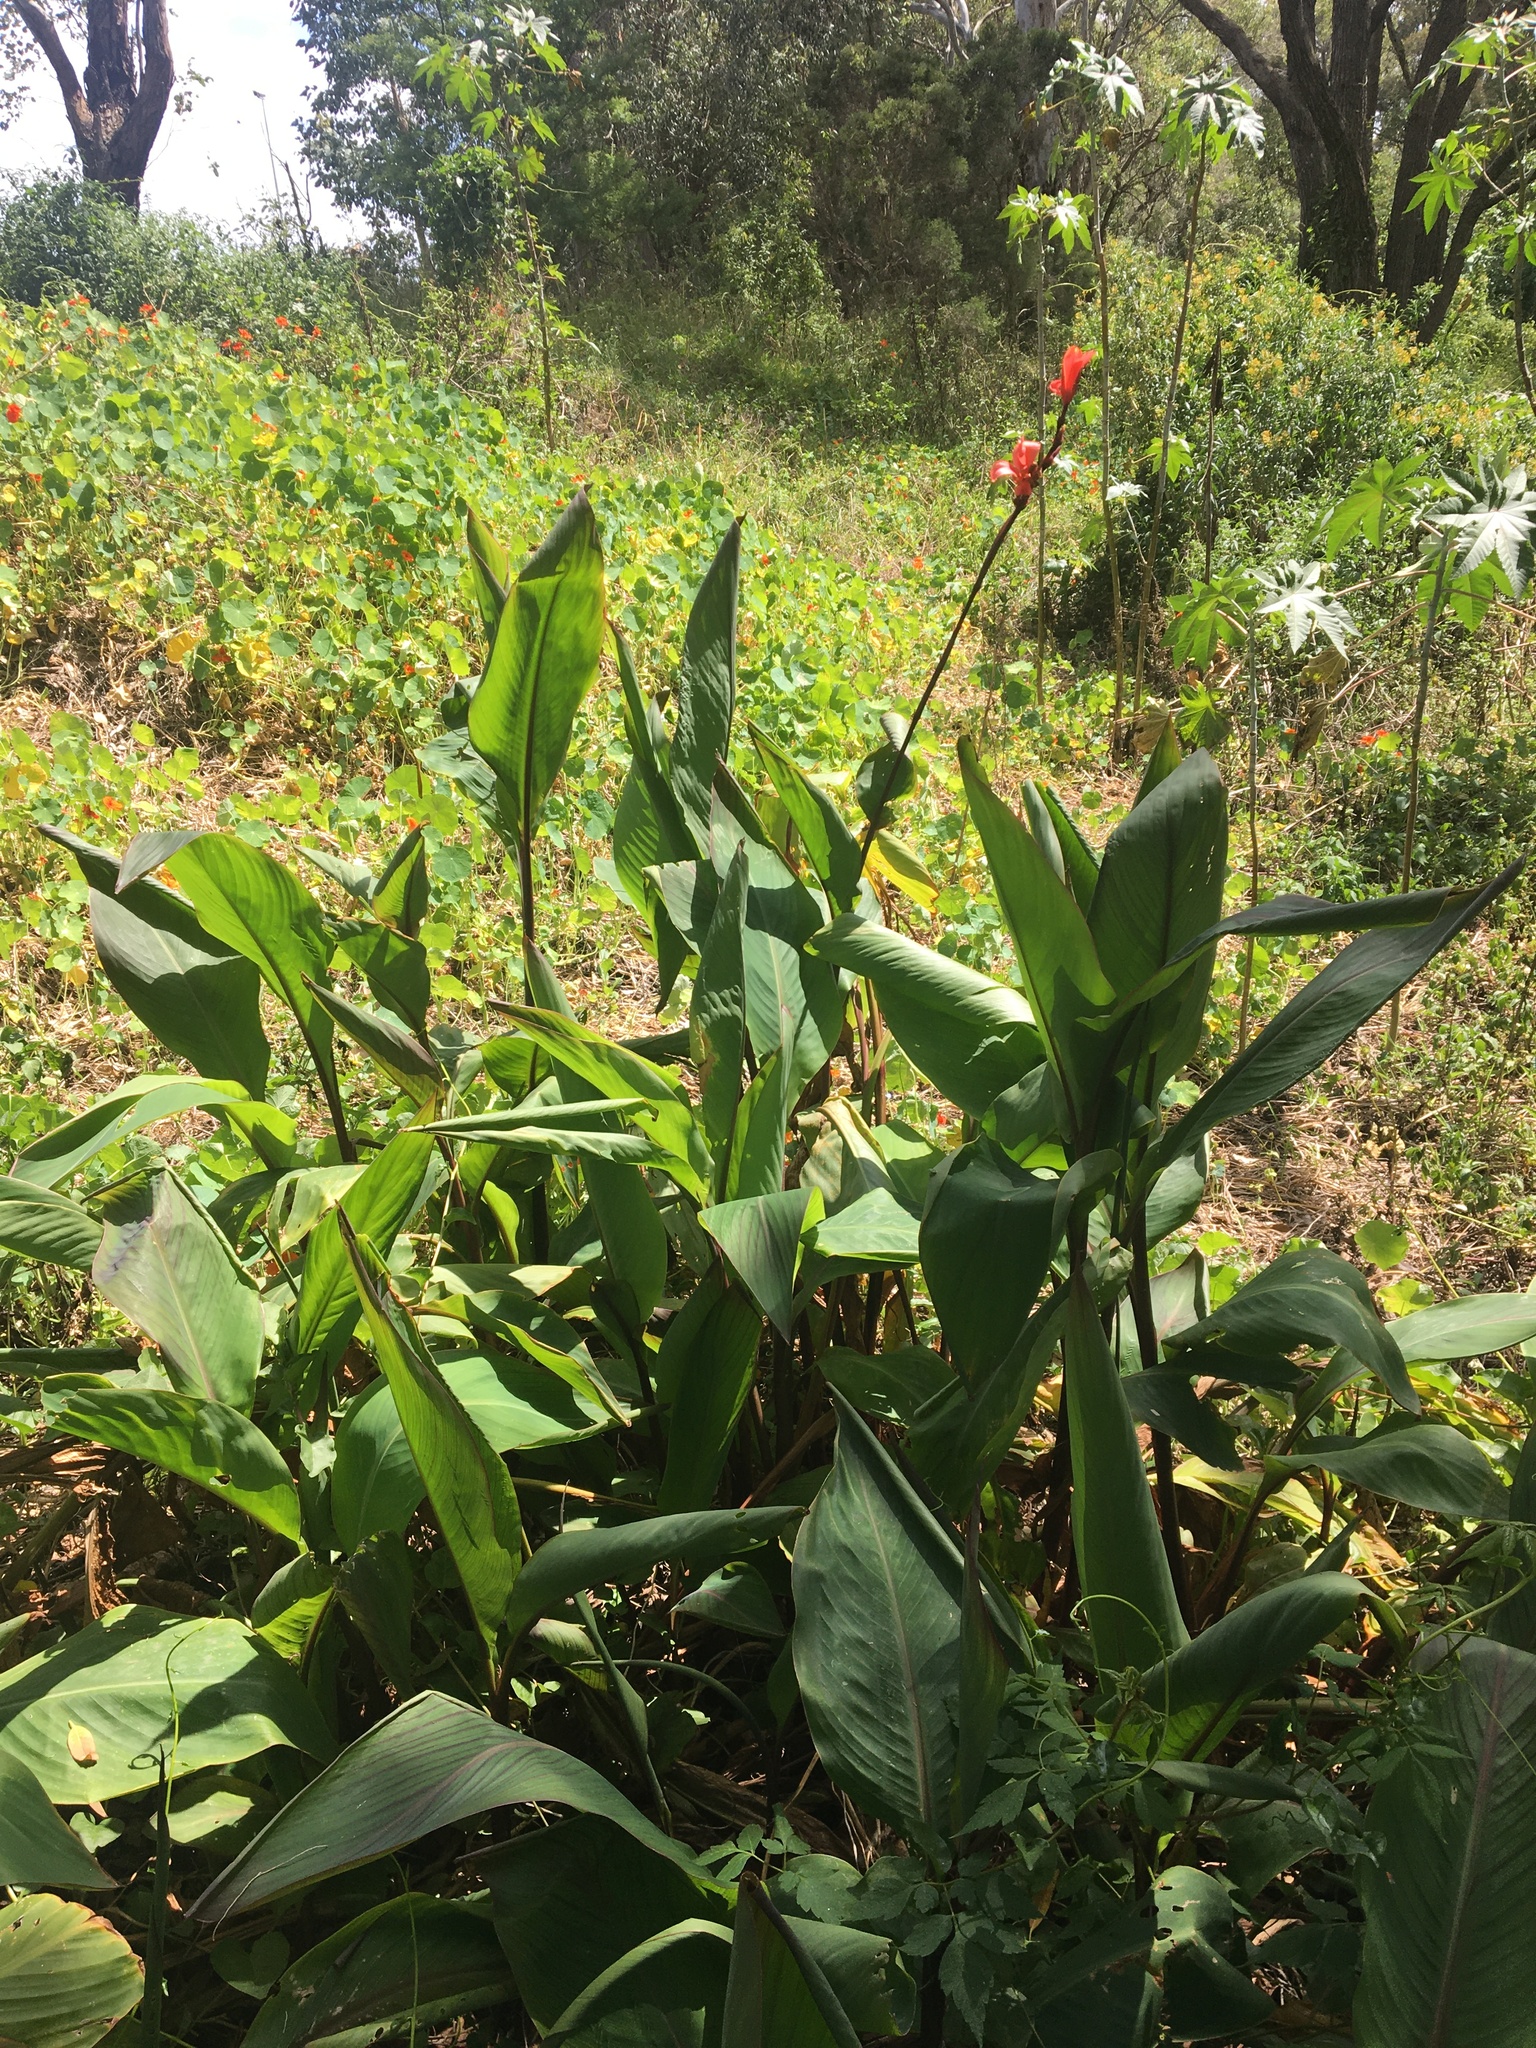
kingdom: Plantae
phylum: Tracheophyta
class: Liliopsida
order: Zingiberales
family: Cannaceae
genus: Canna
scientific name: Canna indica
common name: Indian shot
